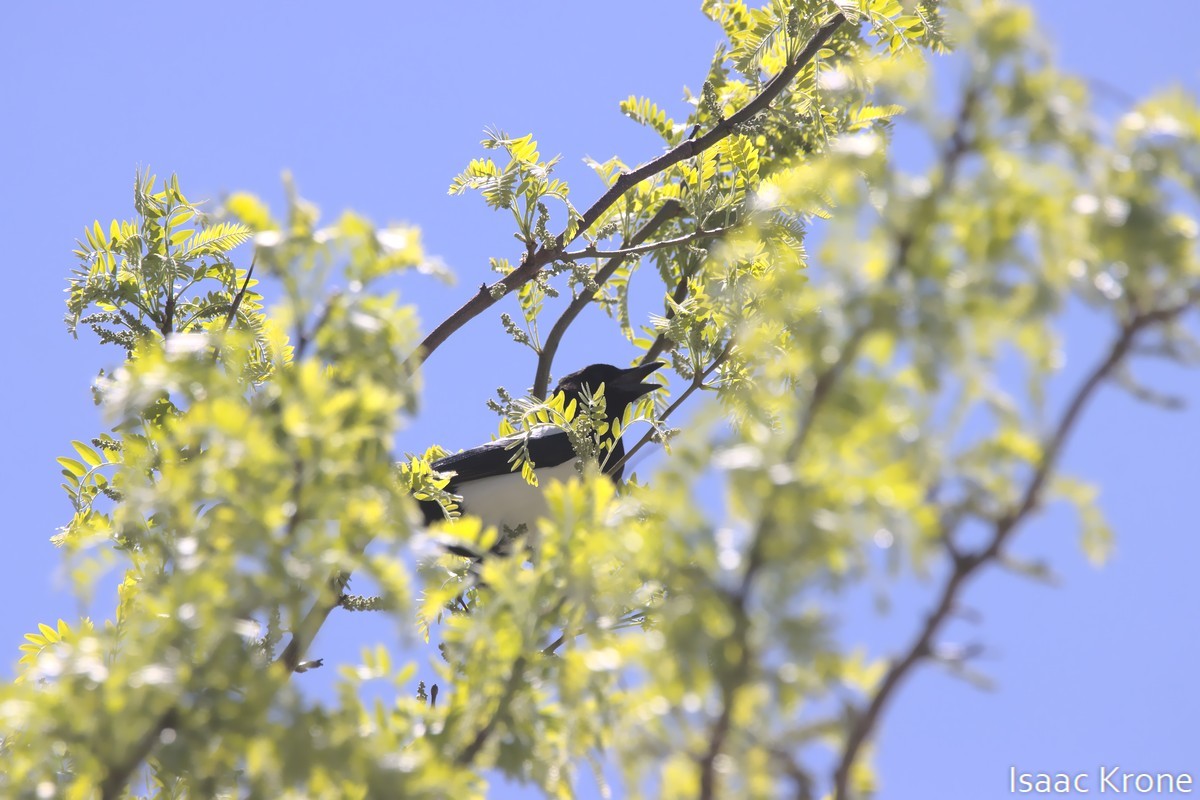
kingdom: Animalia
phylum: Chordata
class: Aves
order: Passeriformes
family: Corvidae
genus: Pica
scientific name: Pica hudsonia
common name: Black-billed magpie
